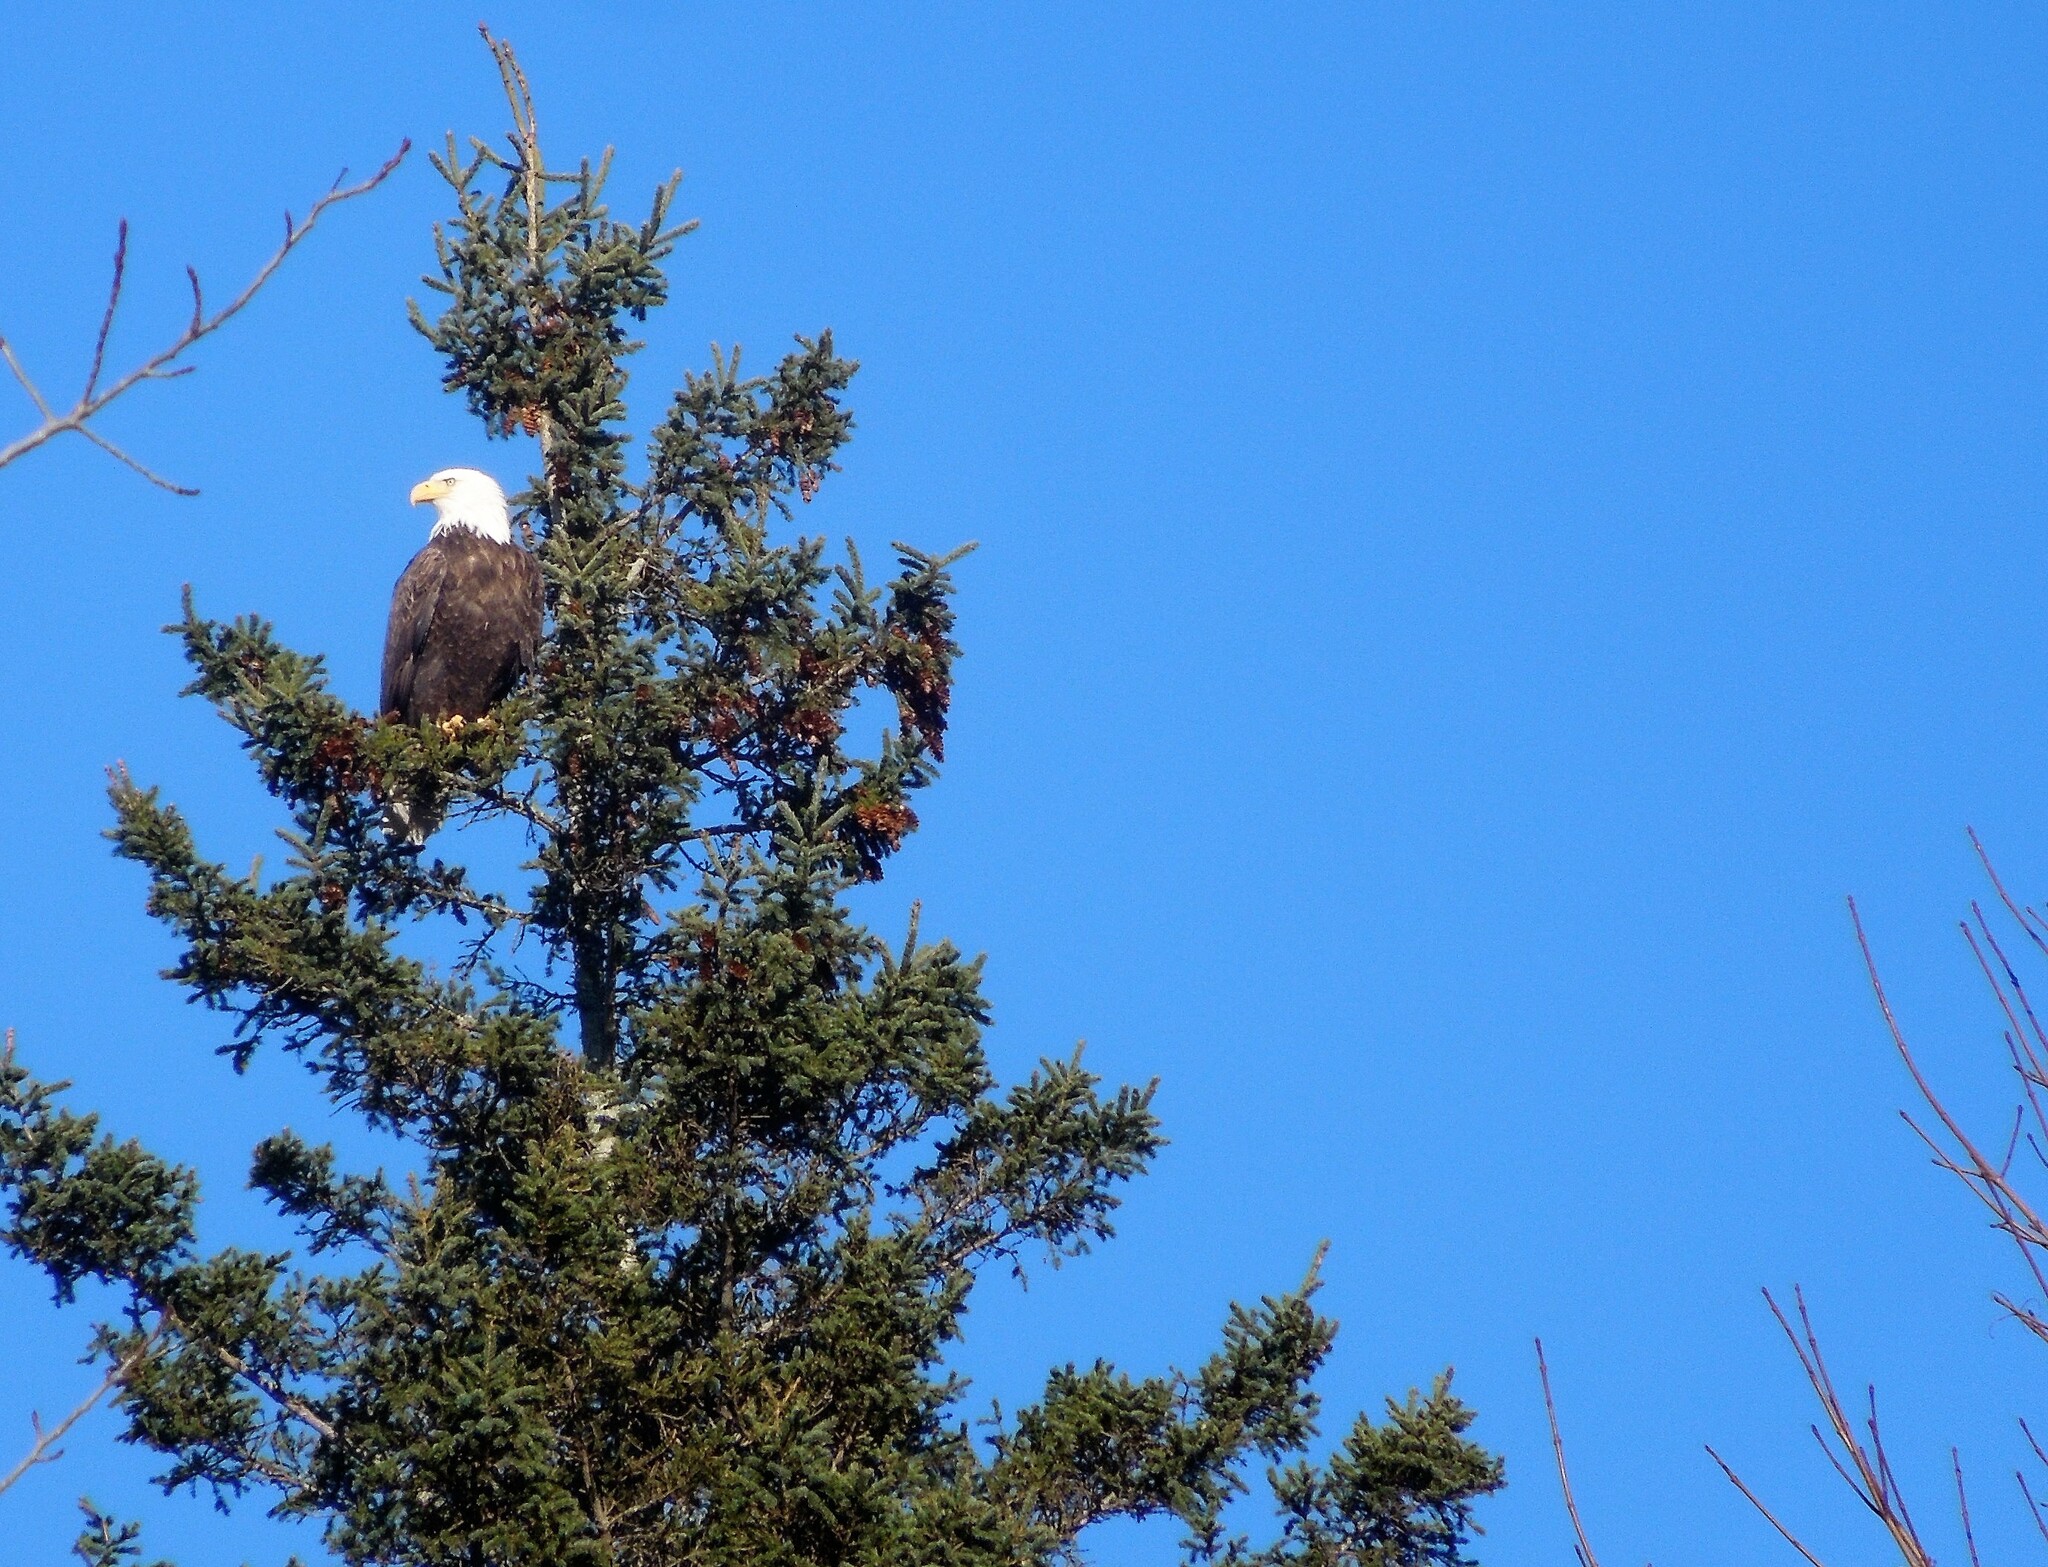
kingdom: Animalia
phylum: Chordata
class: Aves
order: Accipitriformes
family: Accipitridae
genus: Haliaeetus
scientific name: Haliaeetus leucocephalus
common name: Bald eagle
